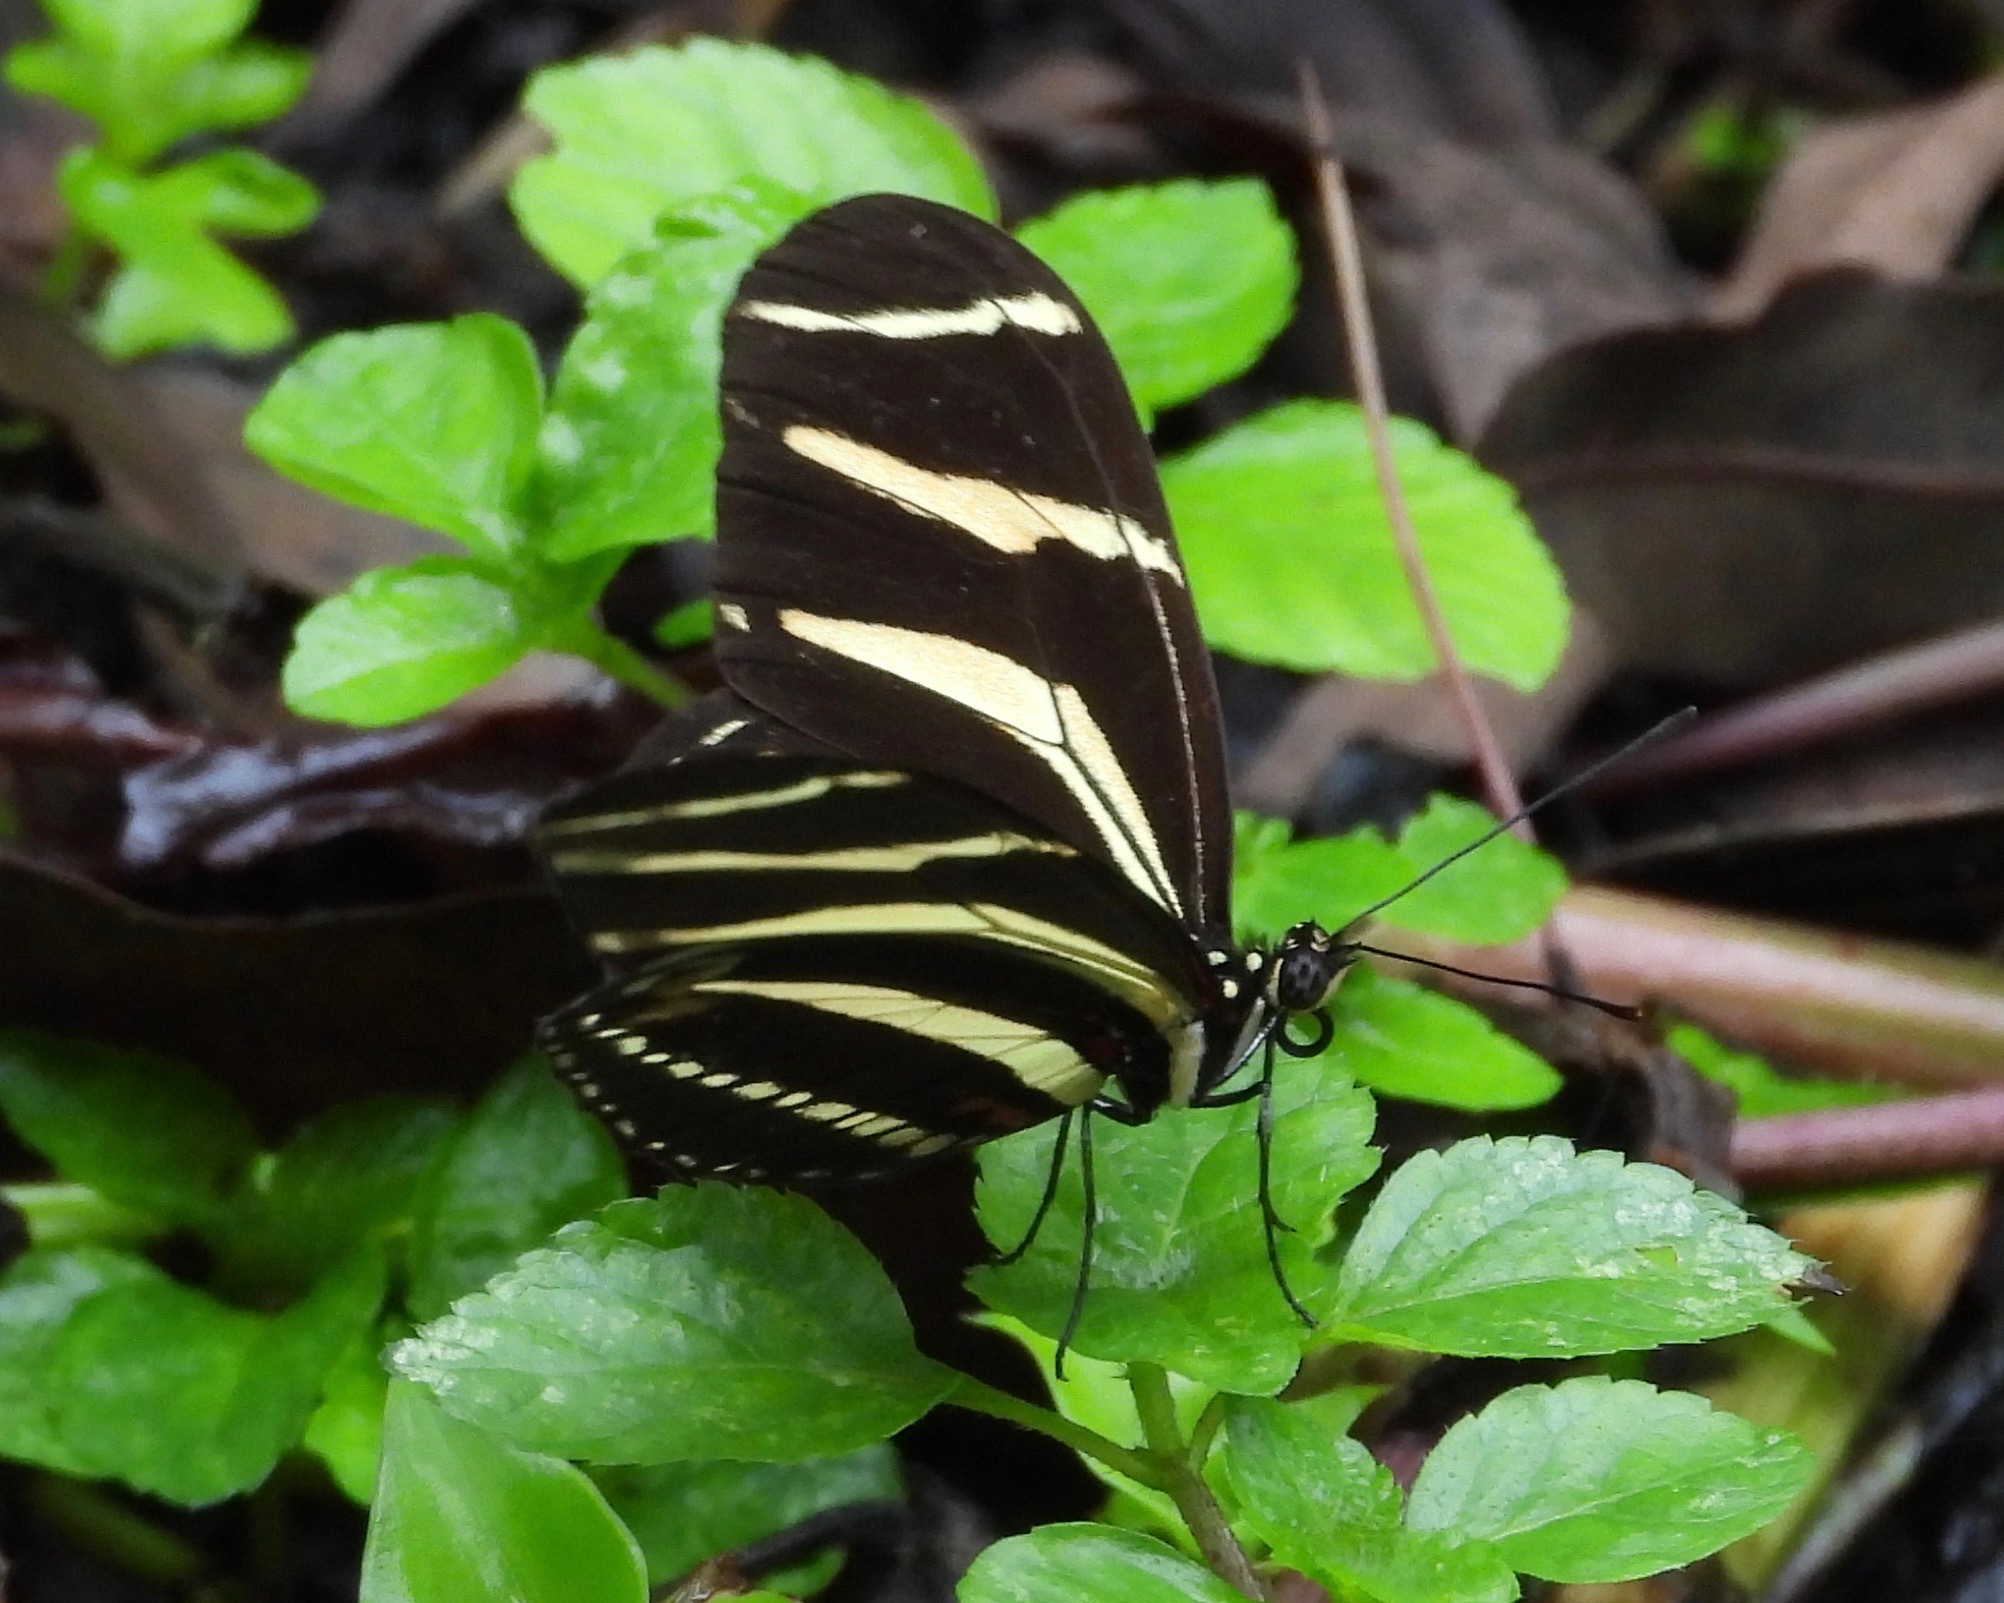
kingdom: Animalia
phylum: Arthropoda
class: Insecta
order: Lepidoptera
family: Nymphalidae
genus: Heliconius
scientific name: Heliconius charithonia
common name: Zebra long wing
